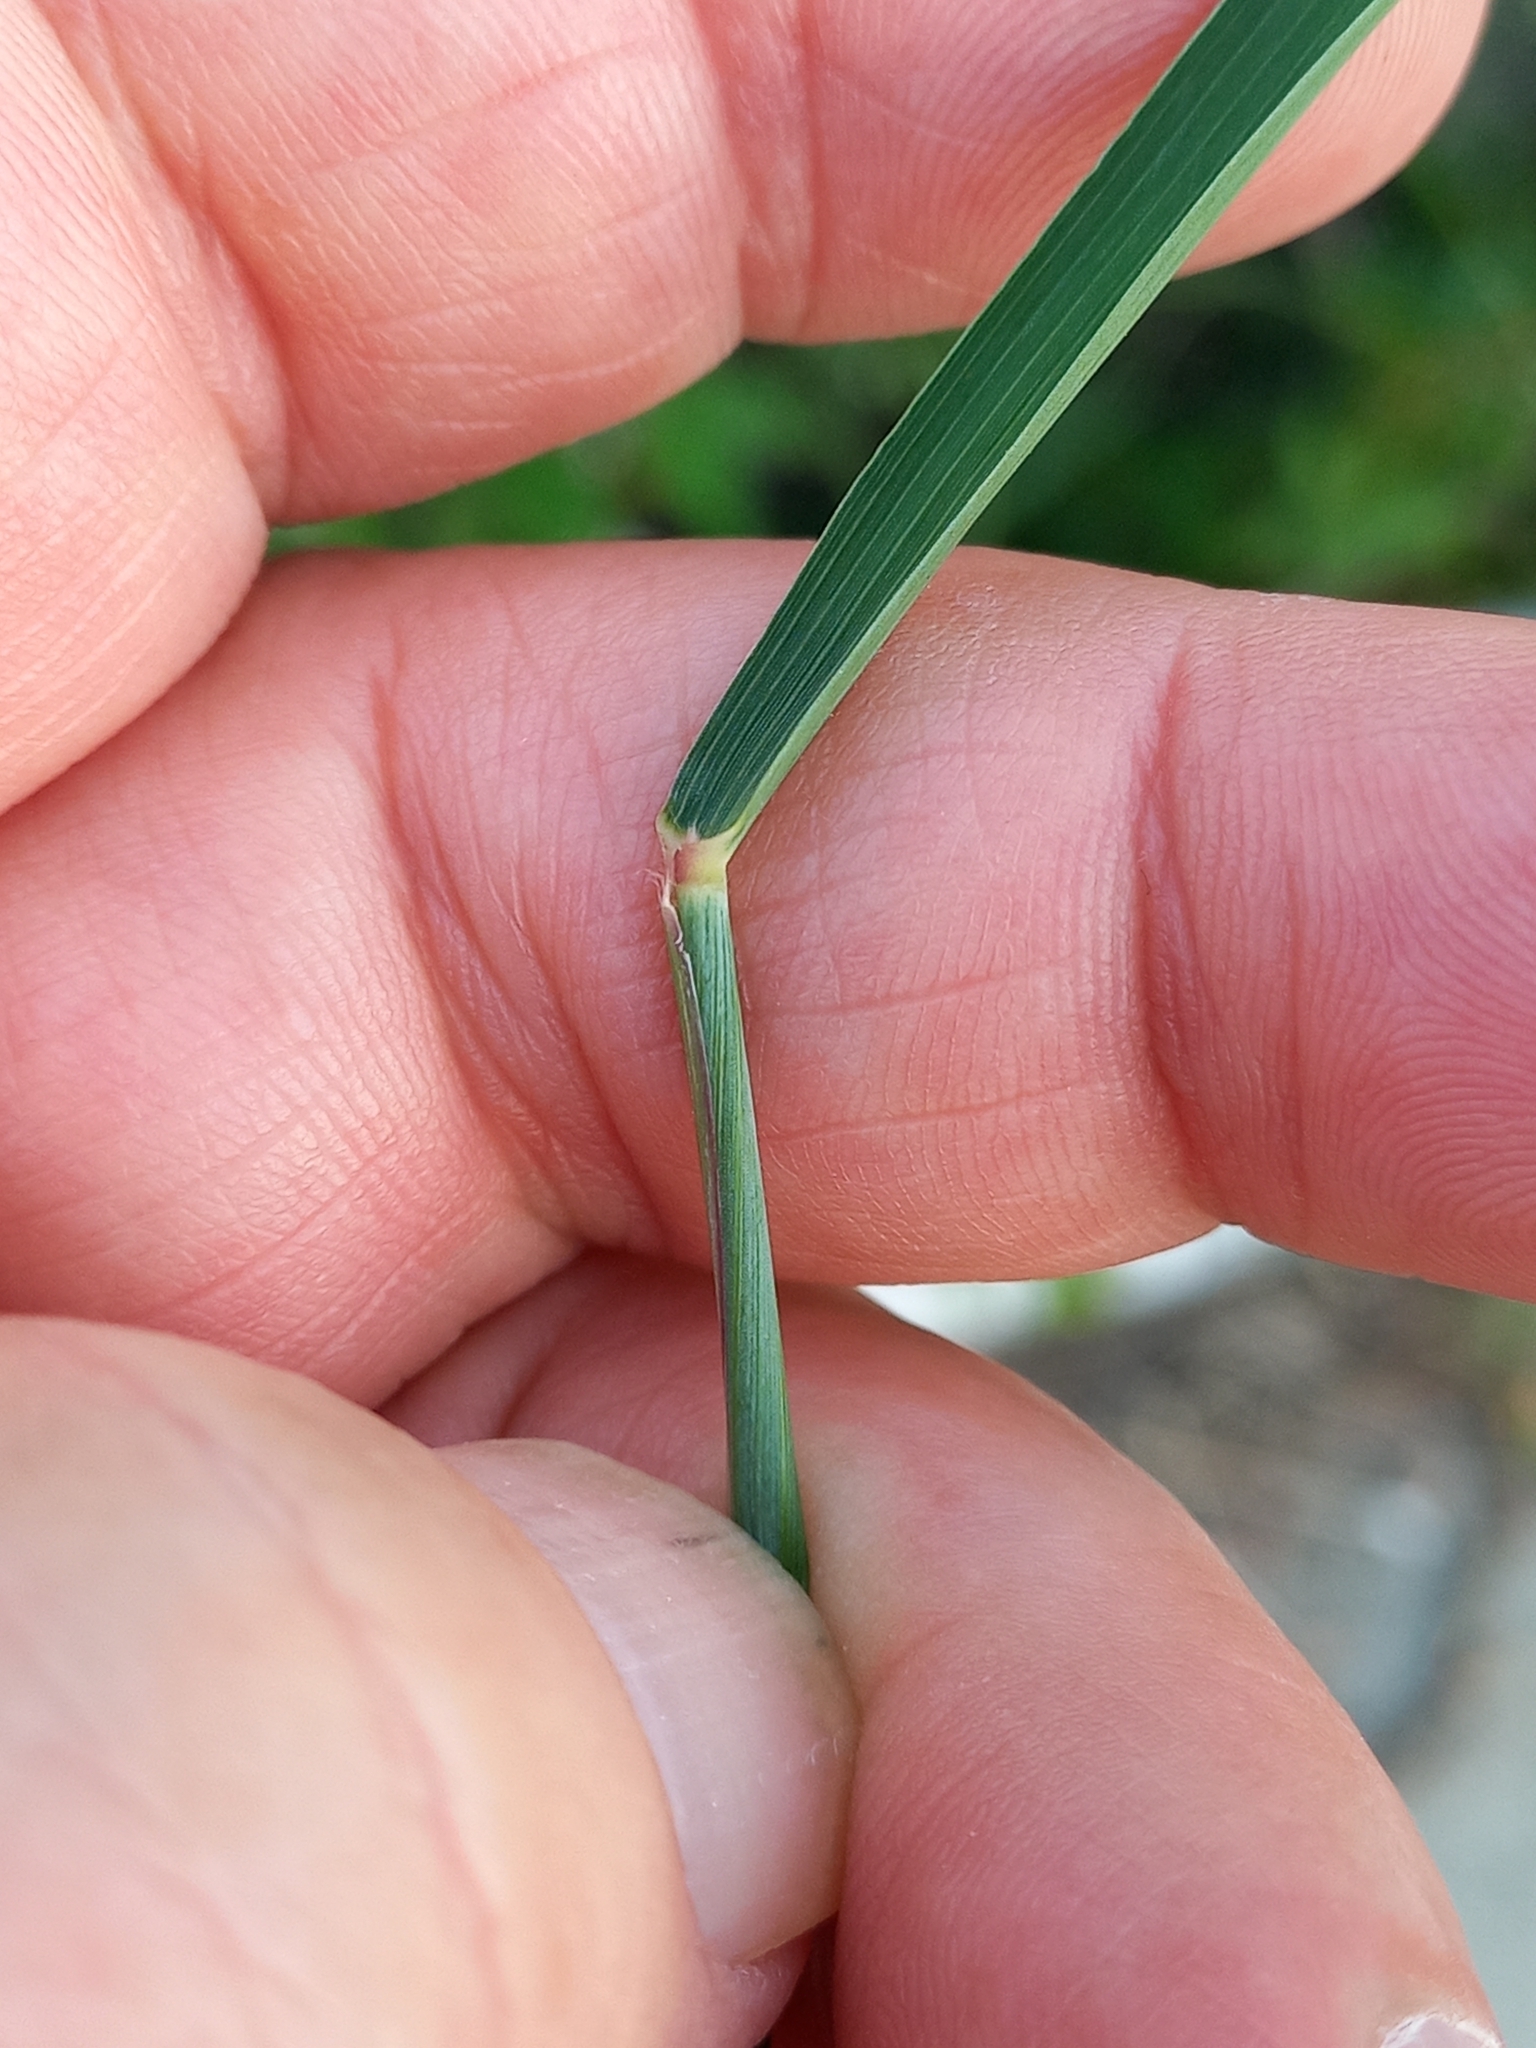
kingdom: Plantae
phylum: Tracheophyta
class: Liliopsida
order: Poales
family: Poaceae
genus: Melinis
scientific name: Melinis repens
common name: Rose natal grass
